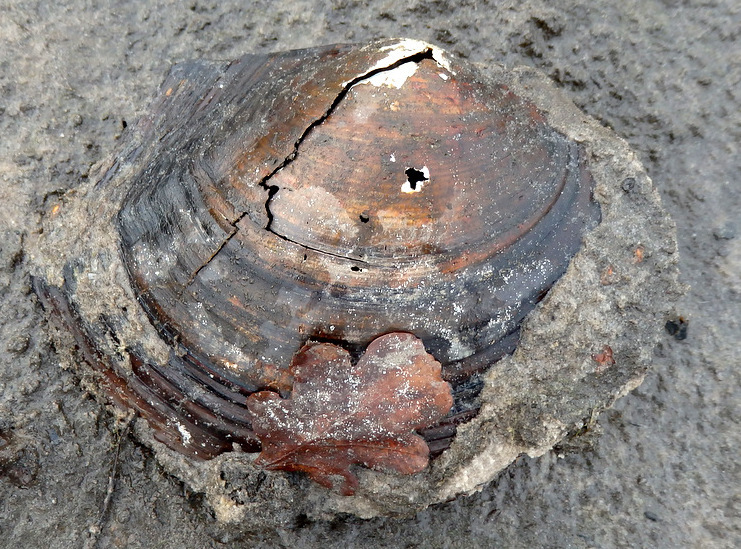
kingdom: Animalia
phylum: Mollusca
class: Bivalvia
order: Unionida
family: Unionidae
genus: Sinanodonta
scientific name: Sinanodonta woodiana
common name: Chinese pond mussel
